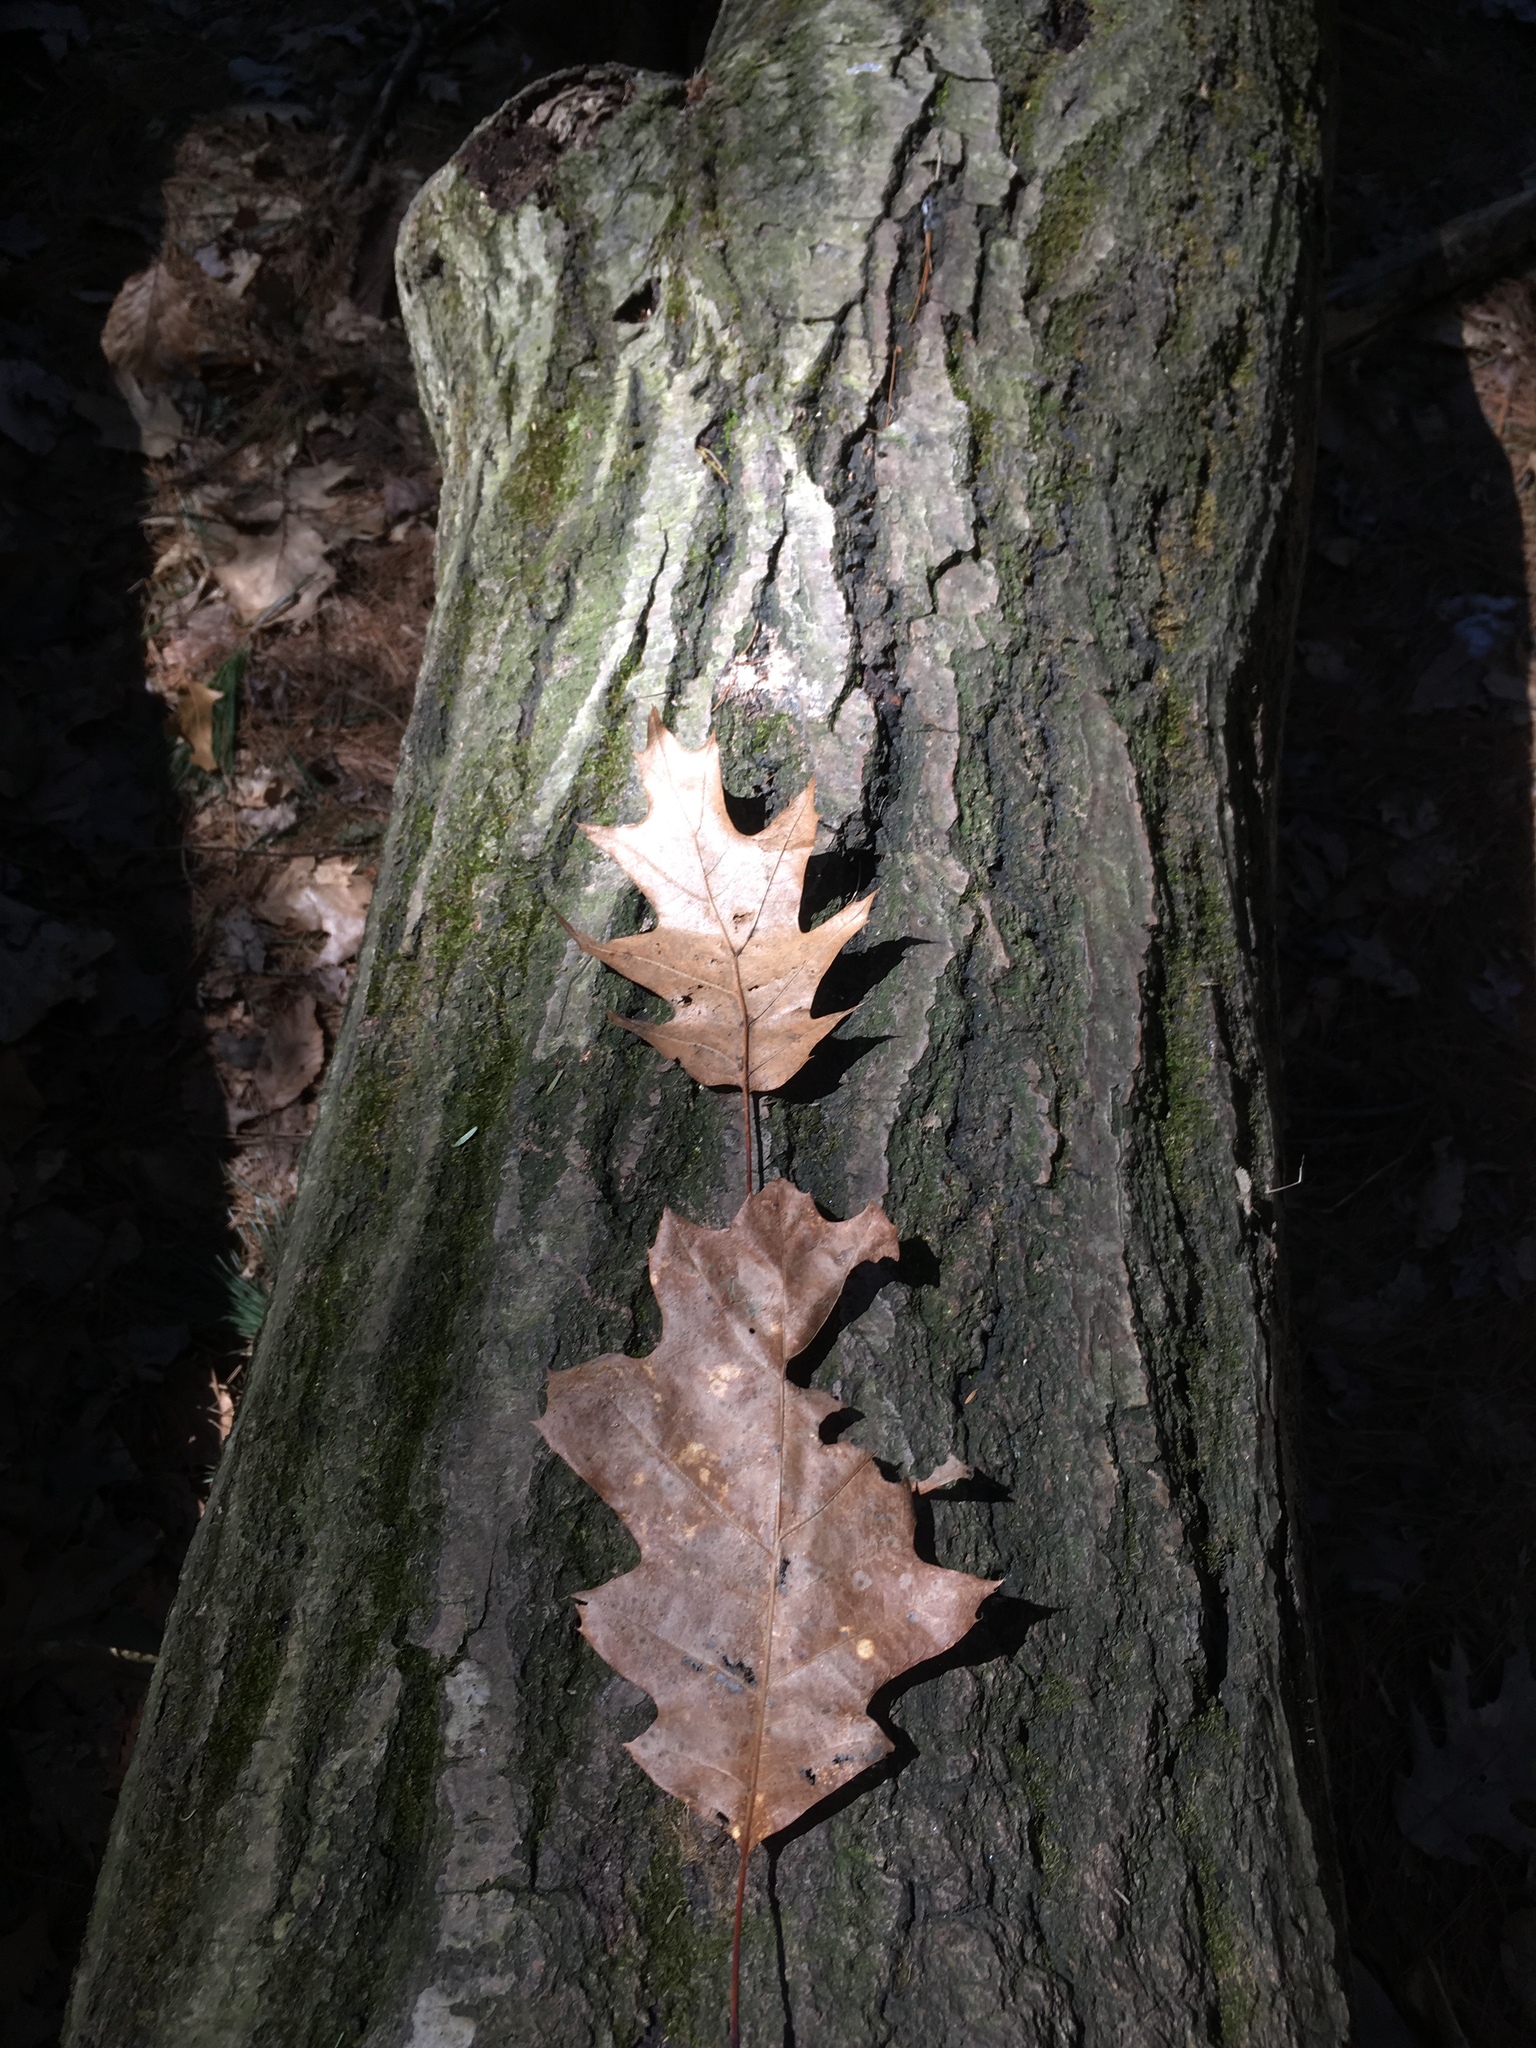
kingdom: Plantae
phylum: Tracheophyta
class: Magnoliopsida
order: Fagales
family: Fagaceae
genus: Quercus
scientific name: Quercus rubra
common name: Red oak
